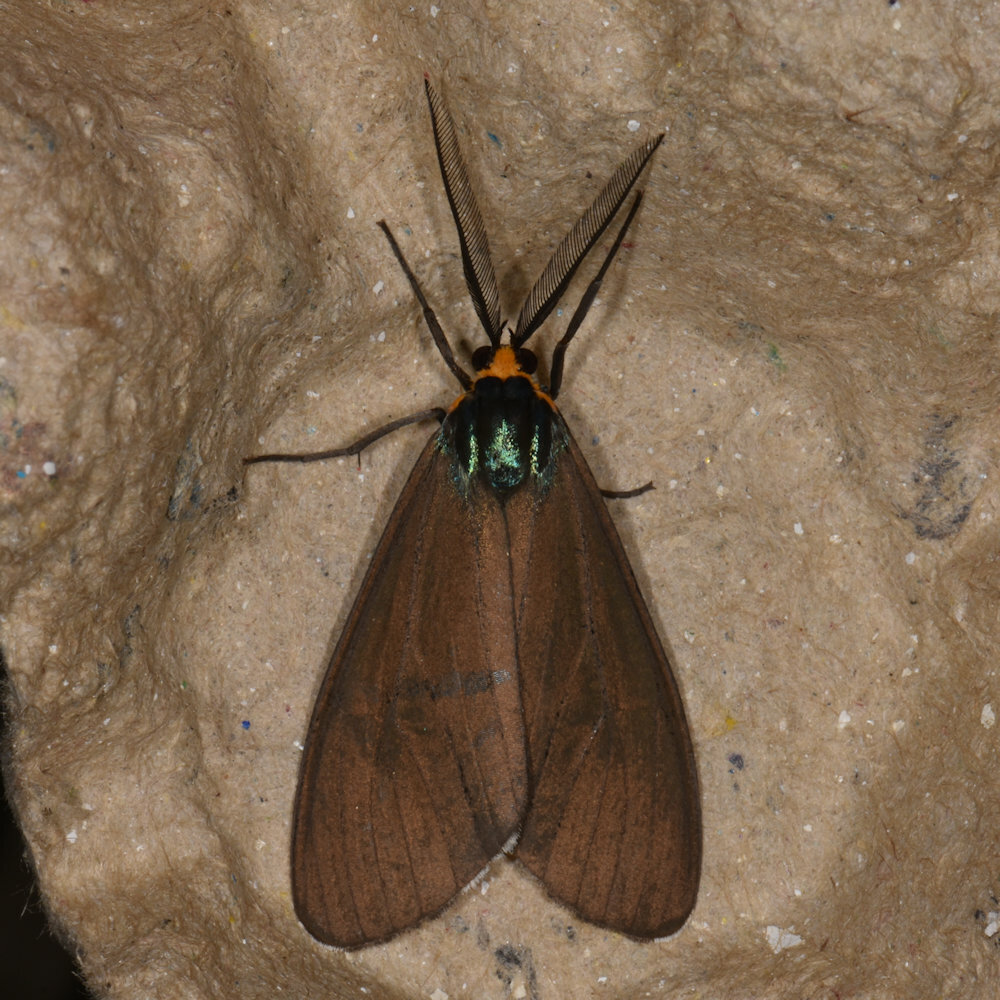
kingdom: Animalia
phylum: Arthropoda
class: Insecta
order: Lepidoptera
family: Erebidae
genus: Ctenucha
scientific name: Ctenucha virginica
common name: Virginia ctenucha moth
